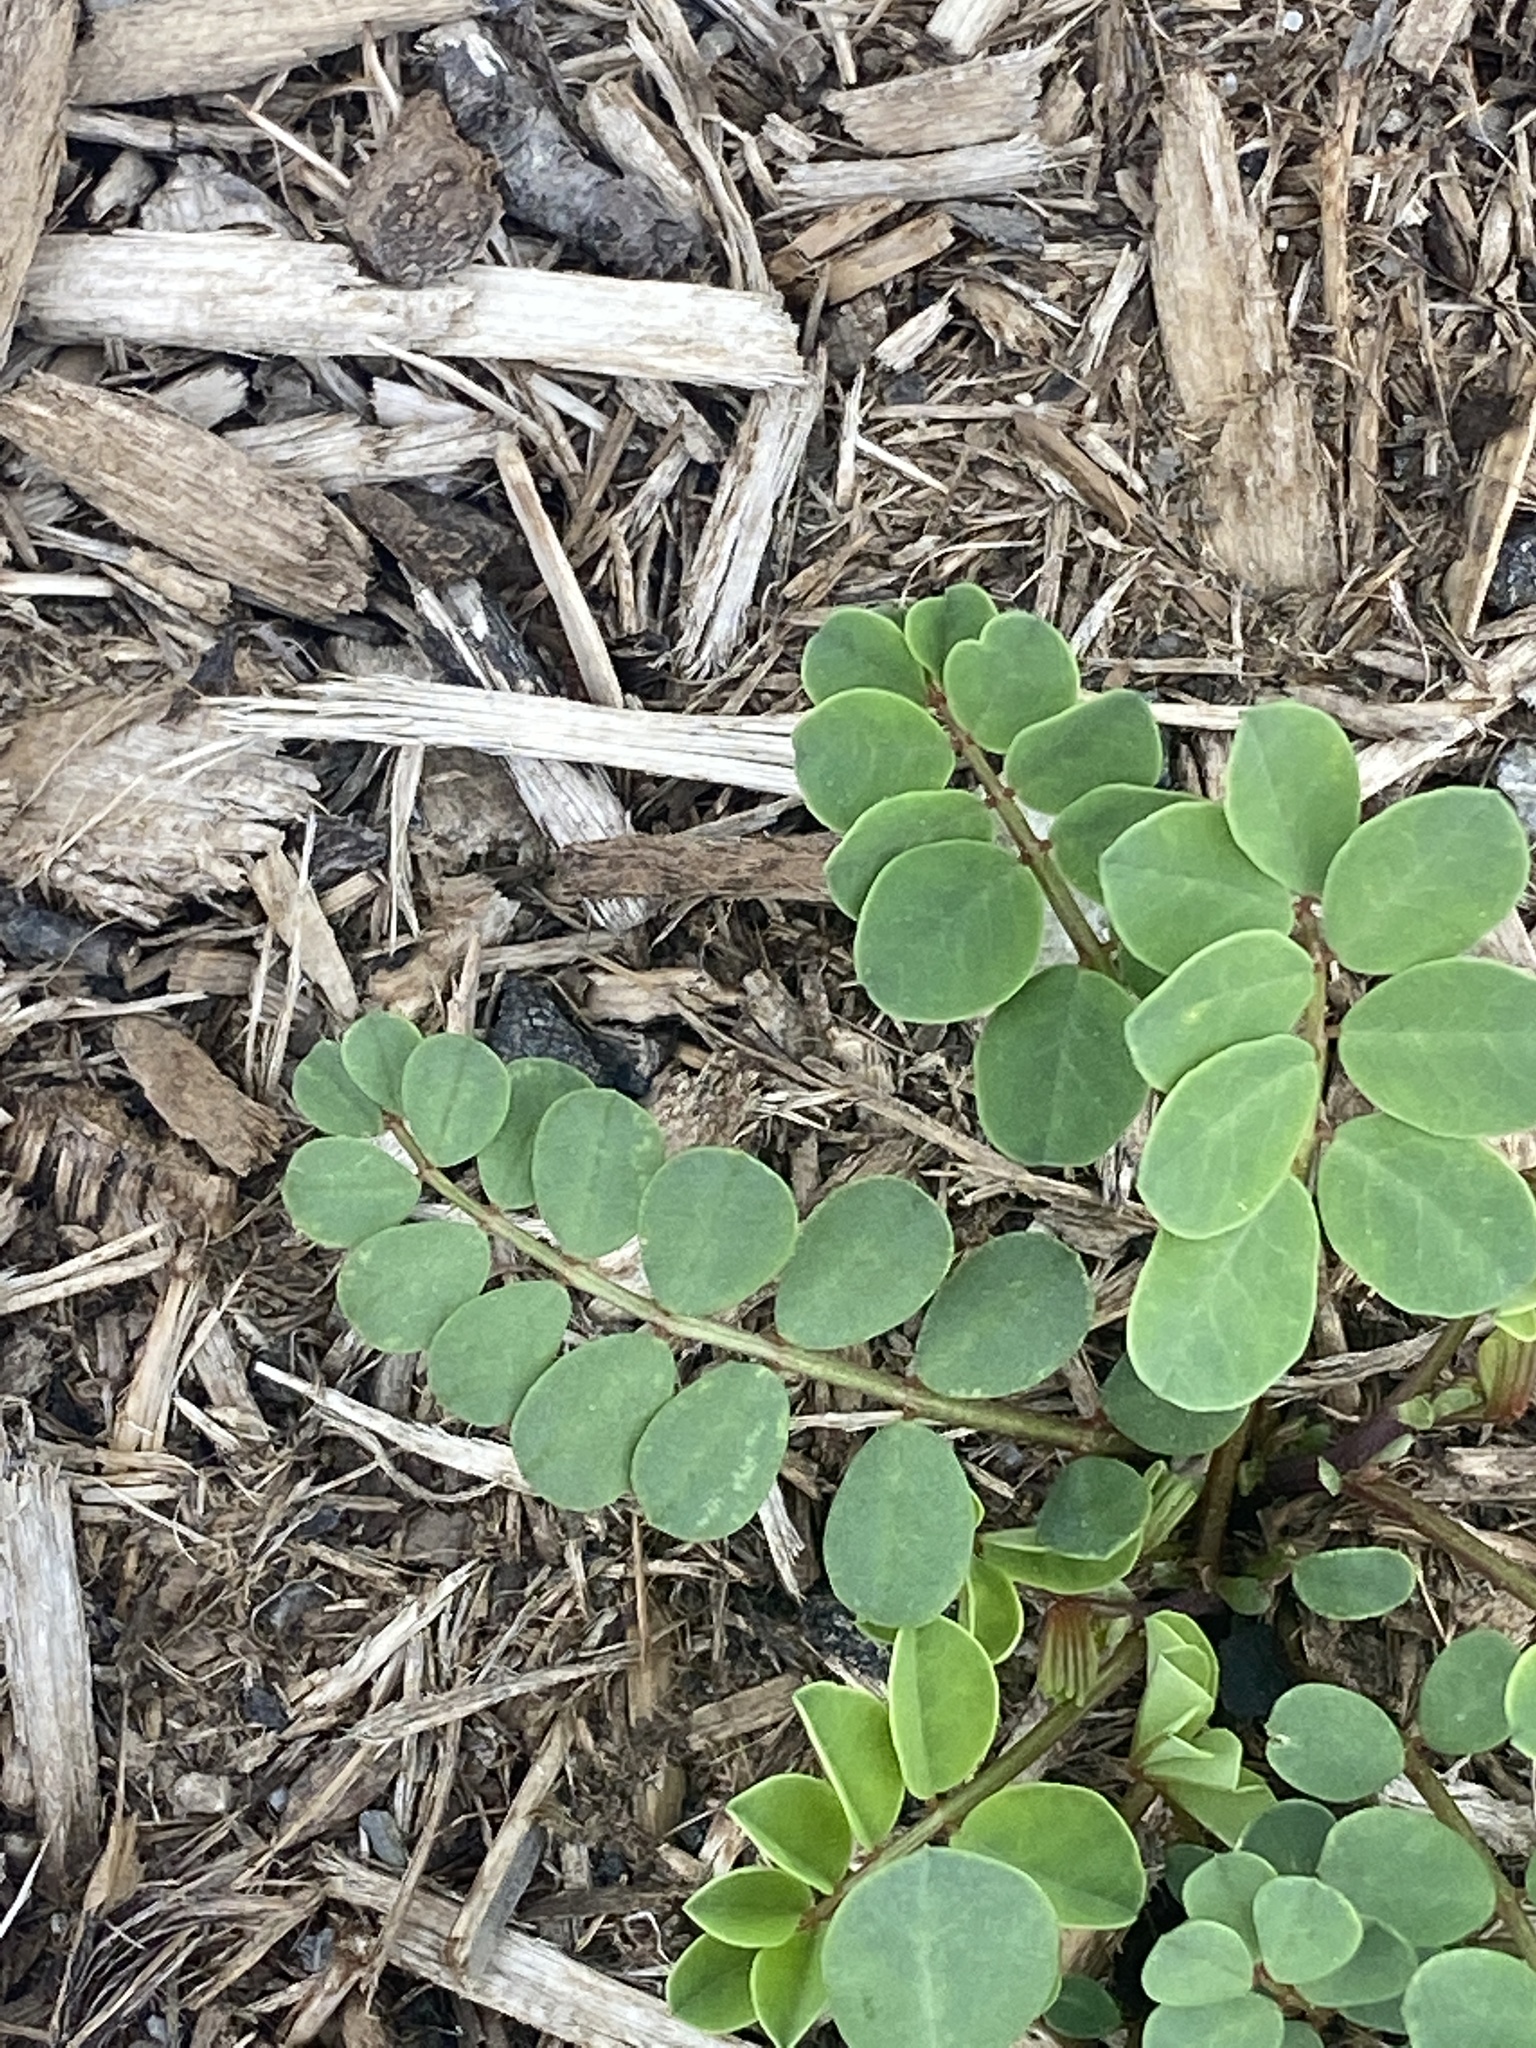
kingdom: Plantae
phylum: Tracheophyta
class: Magnoliopsida
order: Fabales
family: Fabaceae
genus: Coronilla
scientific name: Coronilla varia
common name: Crownvetch
